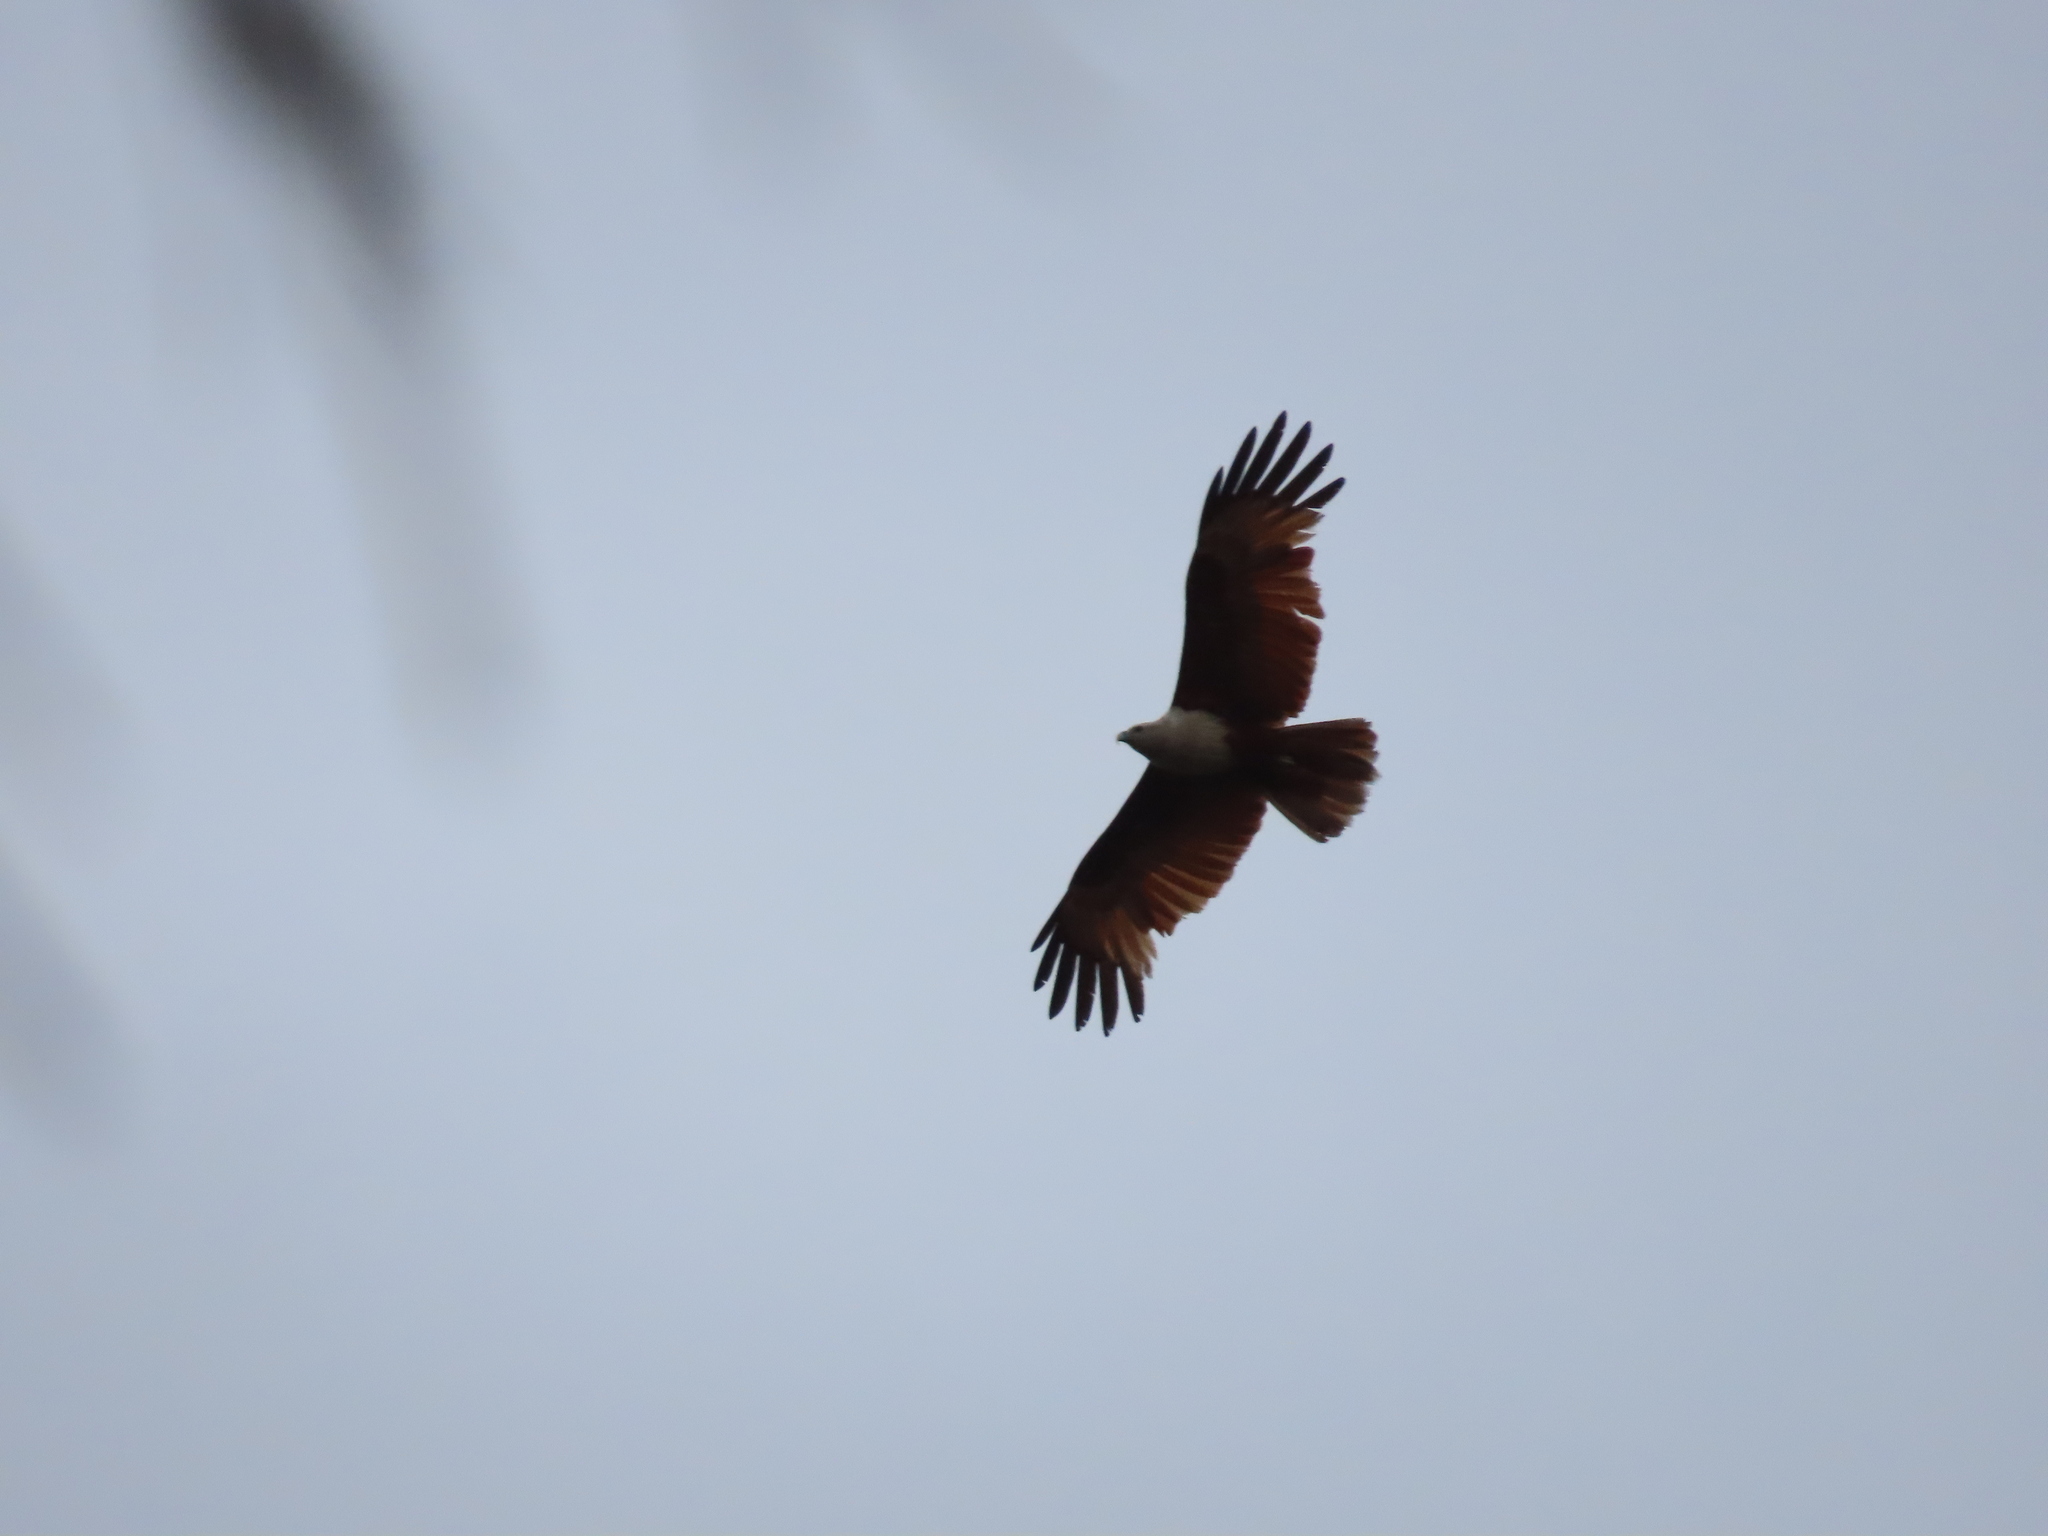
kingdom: Animalia
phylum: Chordata
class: Aves
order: Accipitriformes
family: Accipitridae
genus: Haliastur
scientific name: Haliastur indus
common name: Brahminy kite
